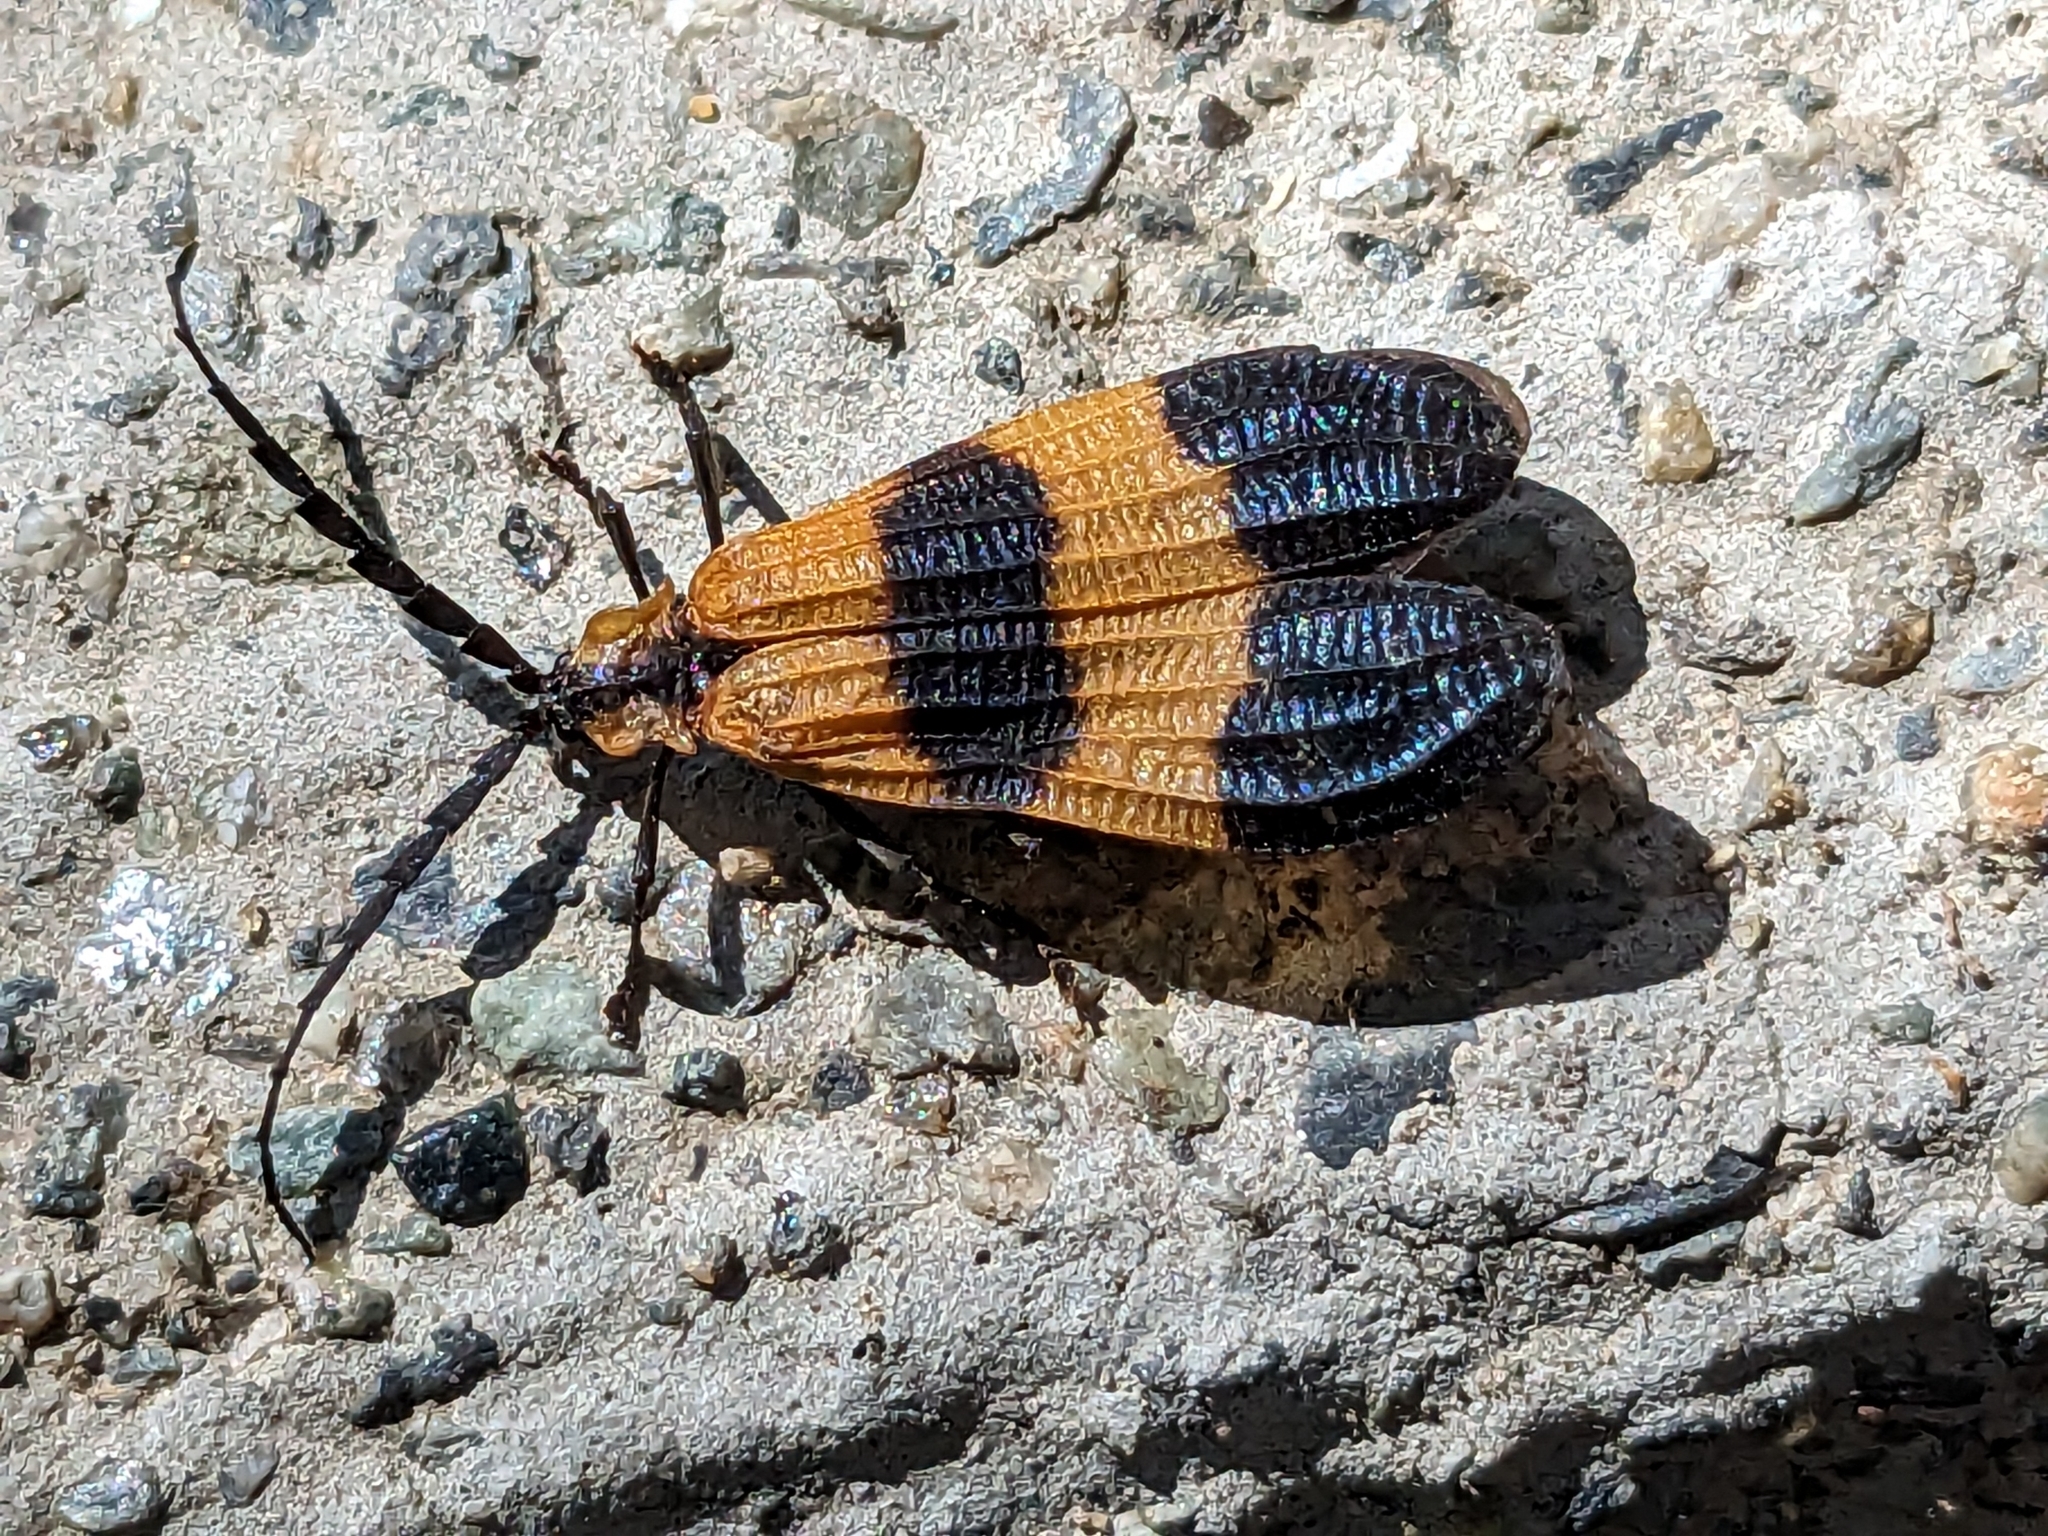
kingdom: Animalia
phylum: Arthropoda
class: Insecta
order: Coleoptera
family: Lycidae
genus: Calopteron
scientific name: Calopteron terminale
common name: End band net-winged beetle
